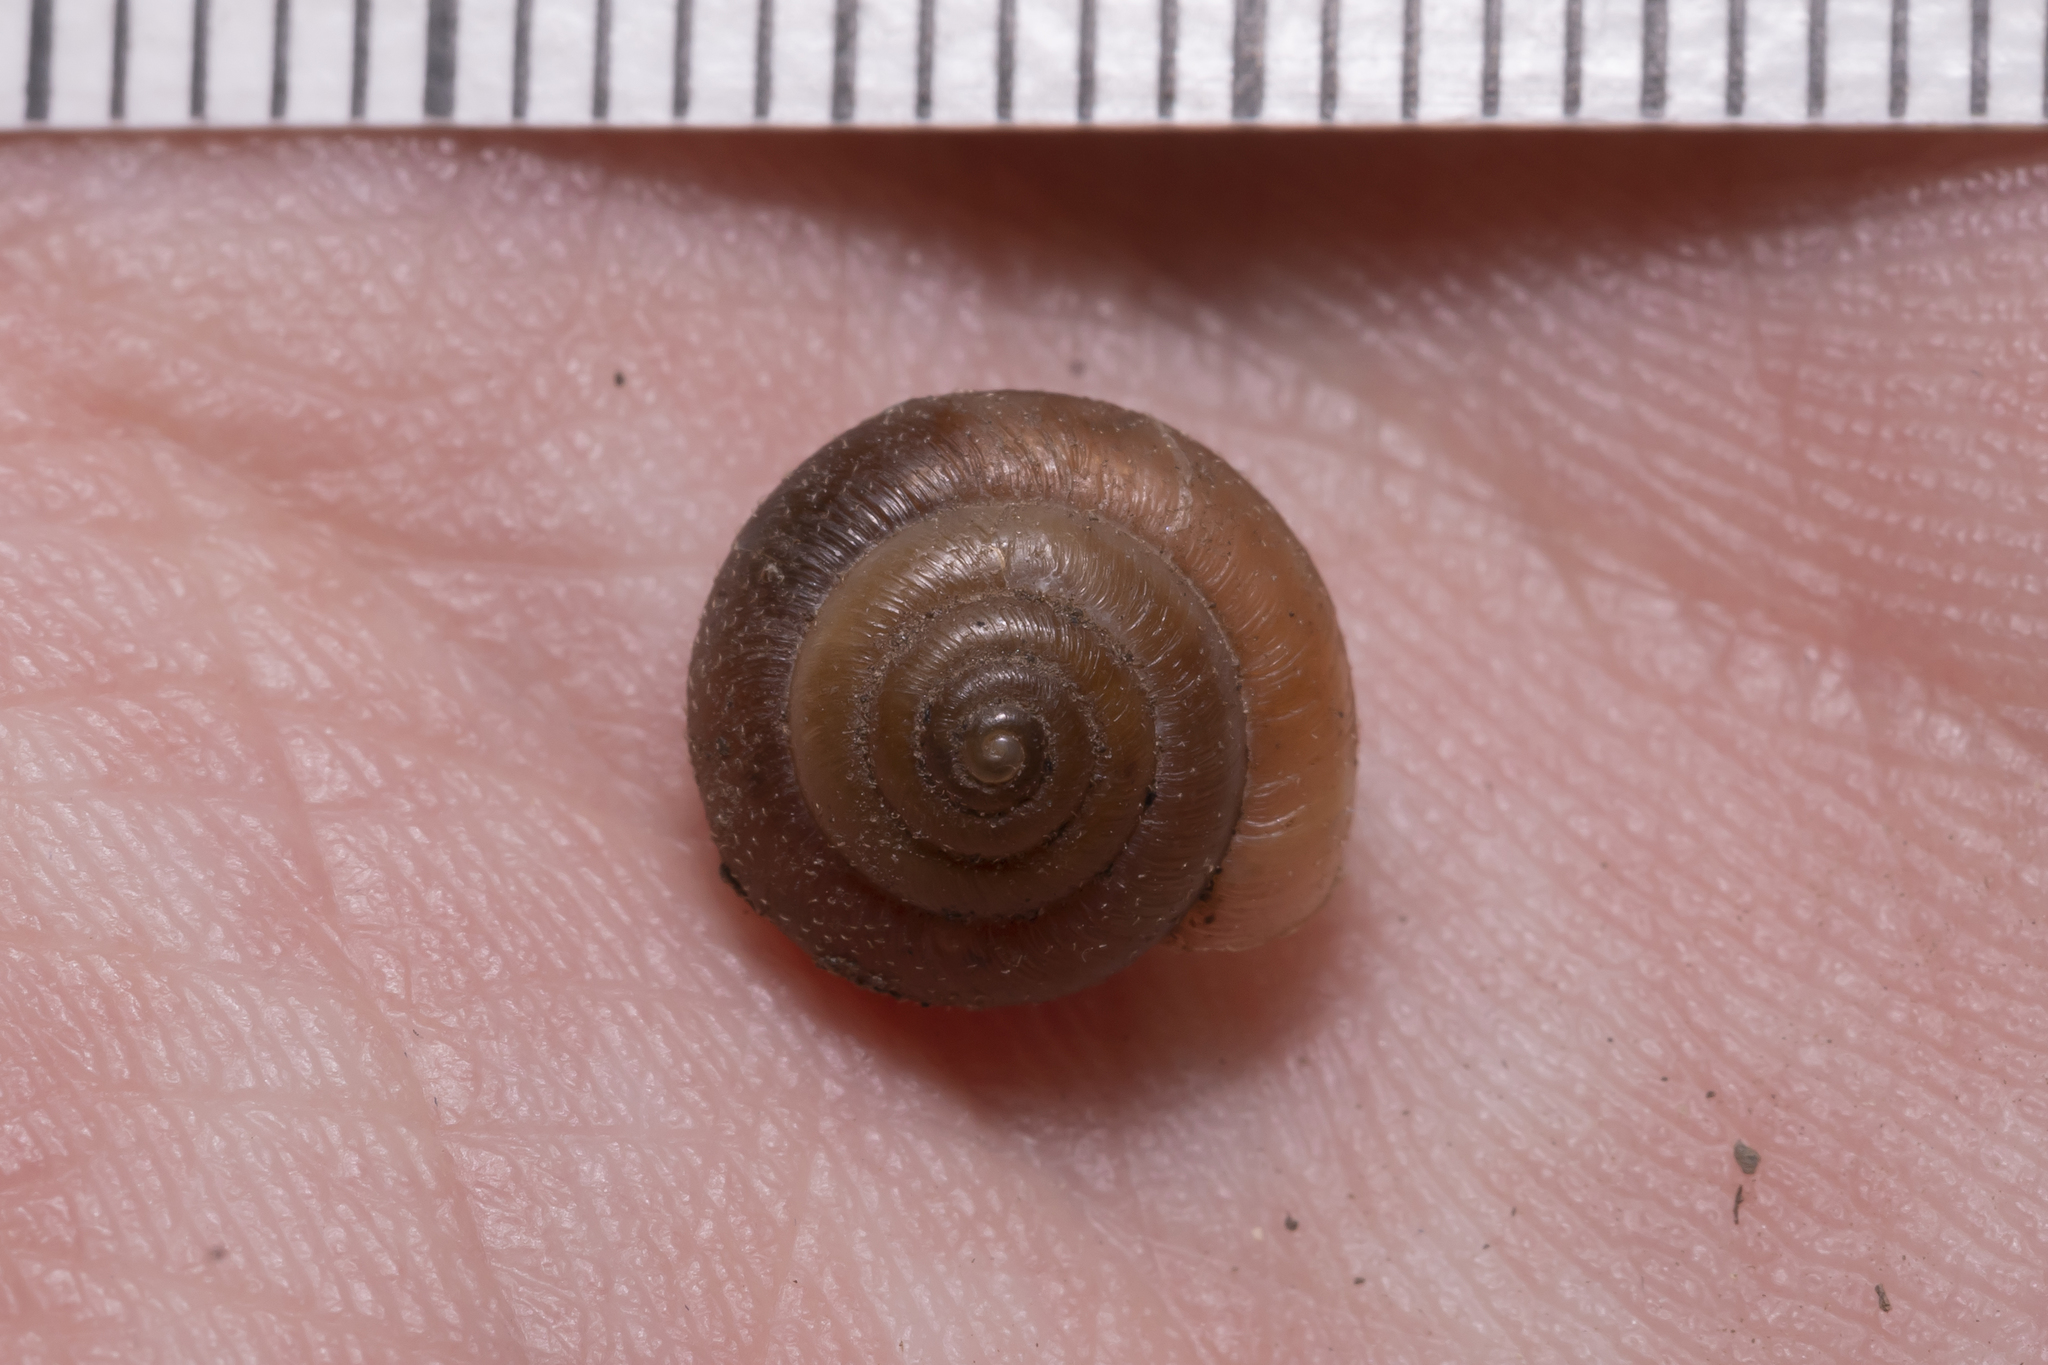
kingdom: Animalia
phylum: Mollusca
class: Gastropoda
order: Stylommatophora
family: Hygromiidae
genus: Trochulus
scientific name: Trochulus hispidus
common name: Hairy snail
